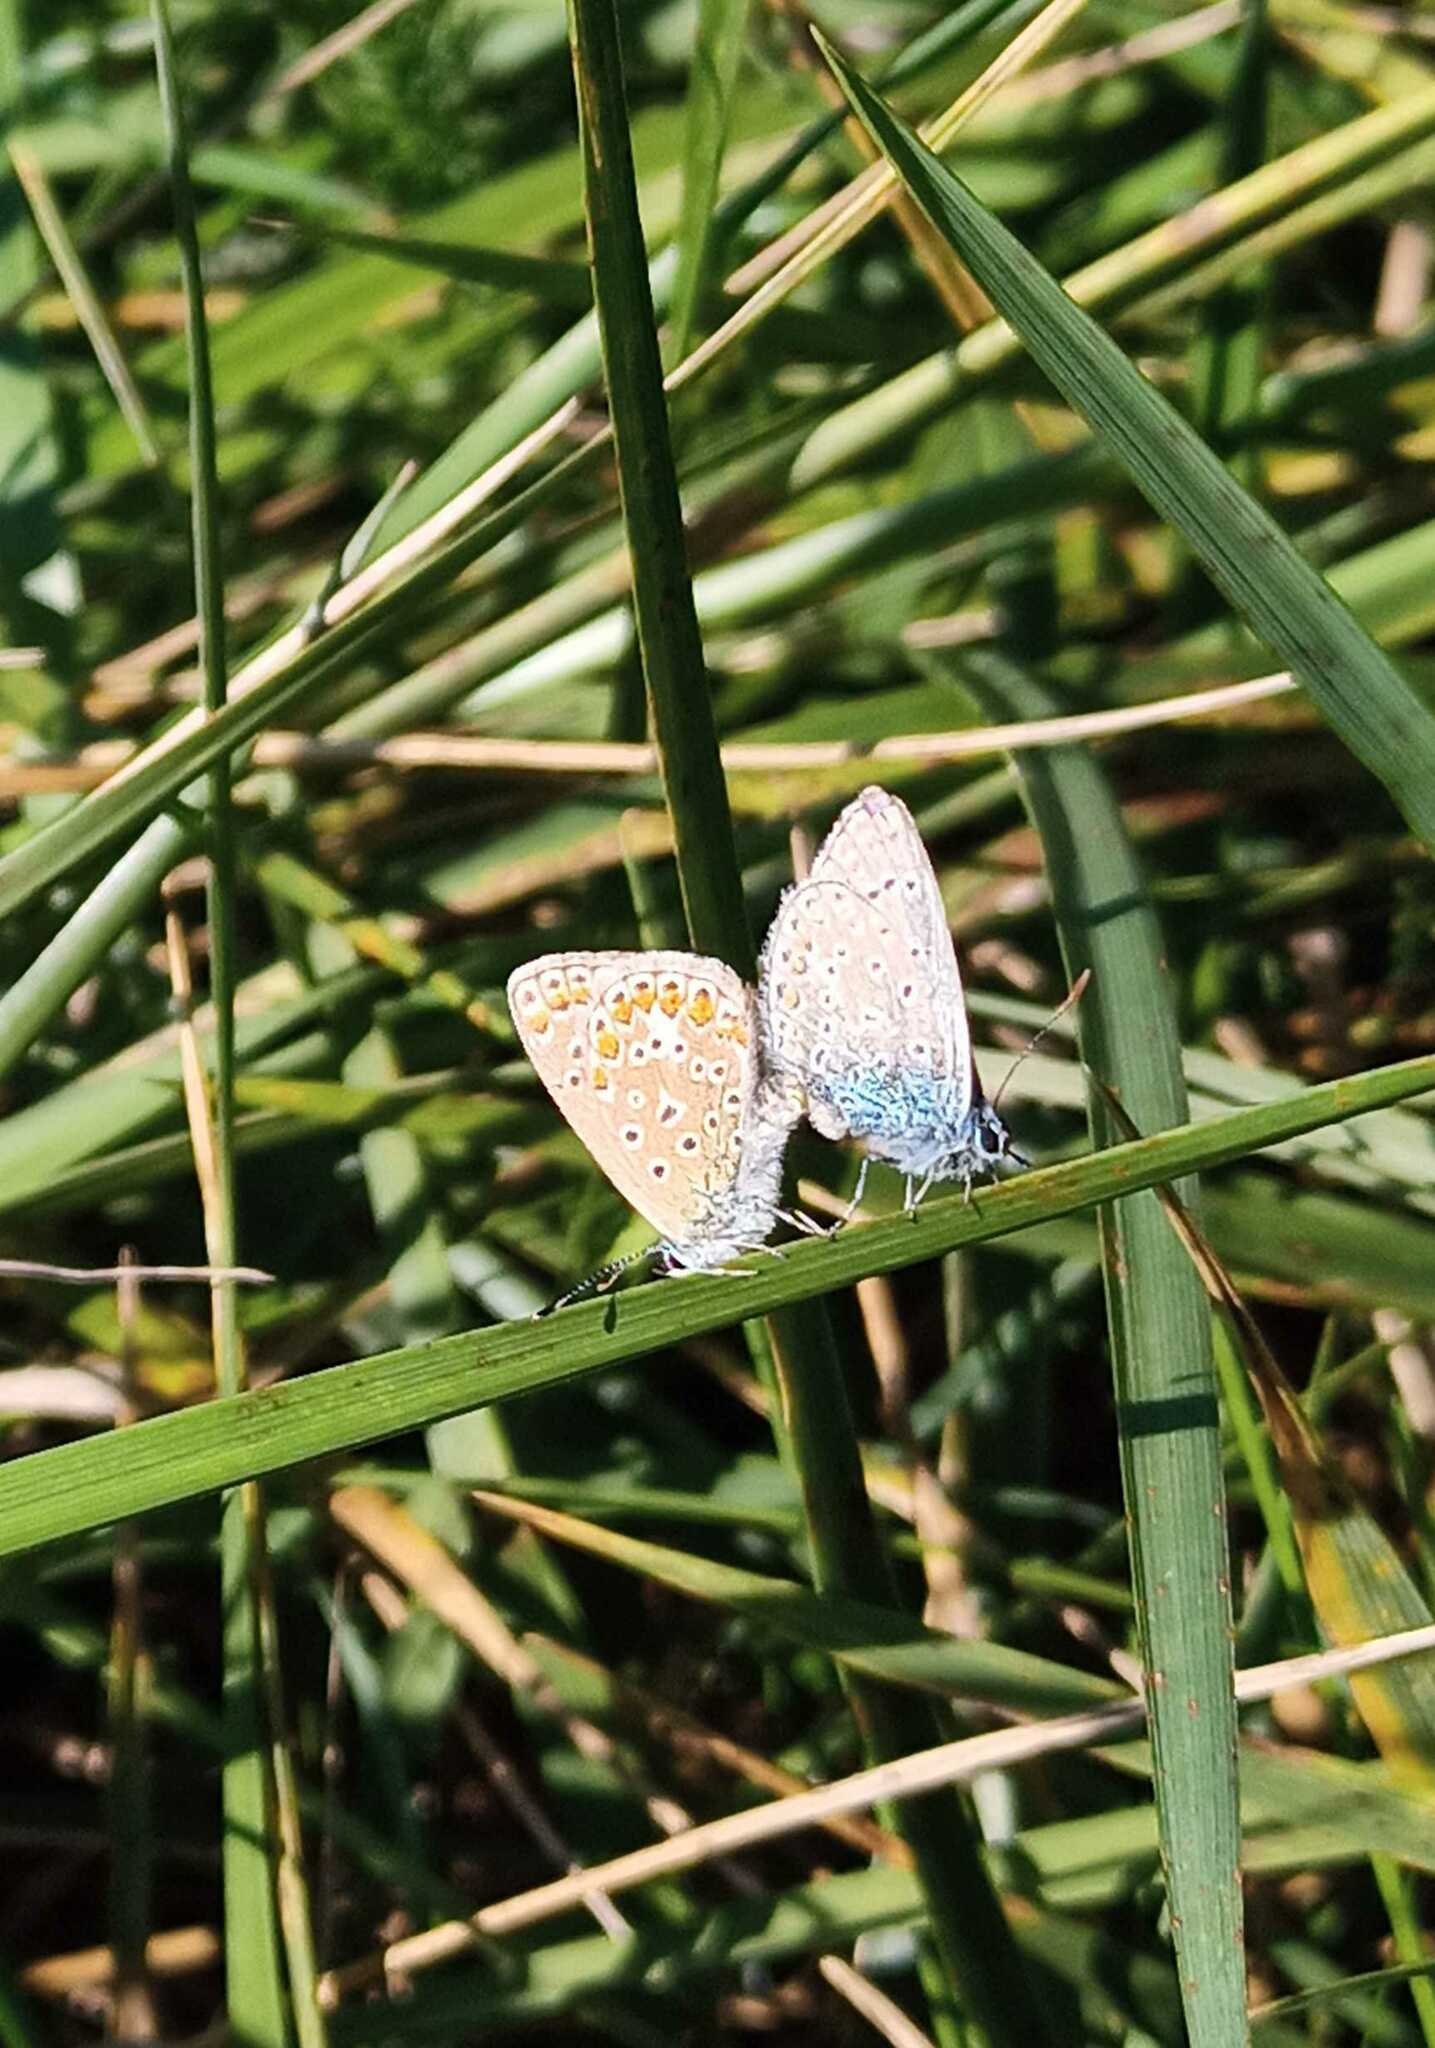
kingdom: Animalia
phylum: Arthropoda
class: Insecta
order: Lepidoptera
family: Lycaenidae
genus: Polyommatus
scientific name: Polyommatus icarus
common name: Common blue
